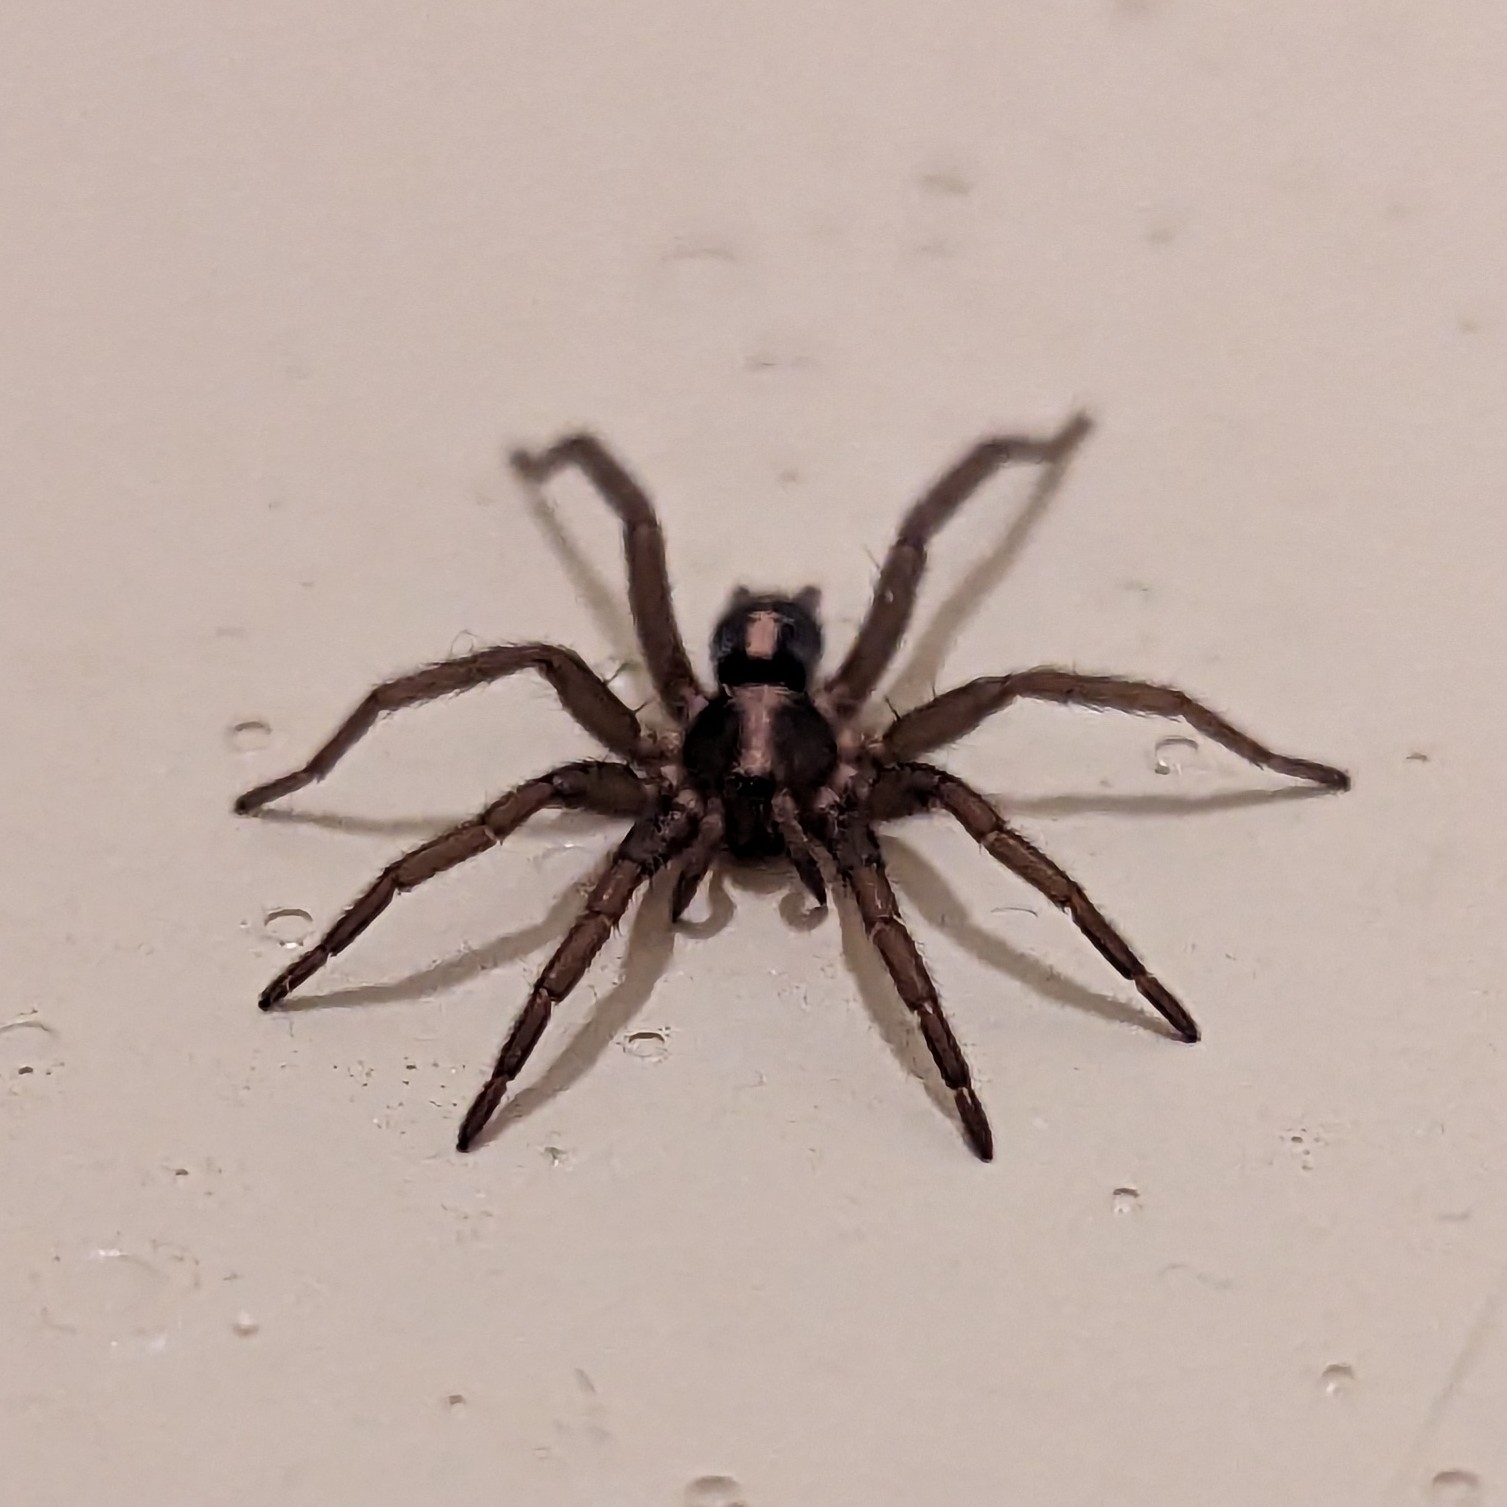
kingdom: Animalia
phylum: Arthropoda
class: Arachnida
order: Araneae
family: Gnaphosidae
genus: Herpyllus
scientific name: Herpyllus propinquus
